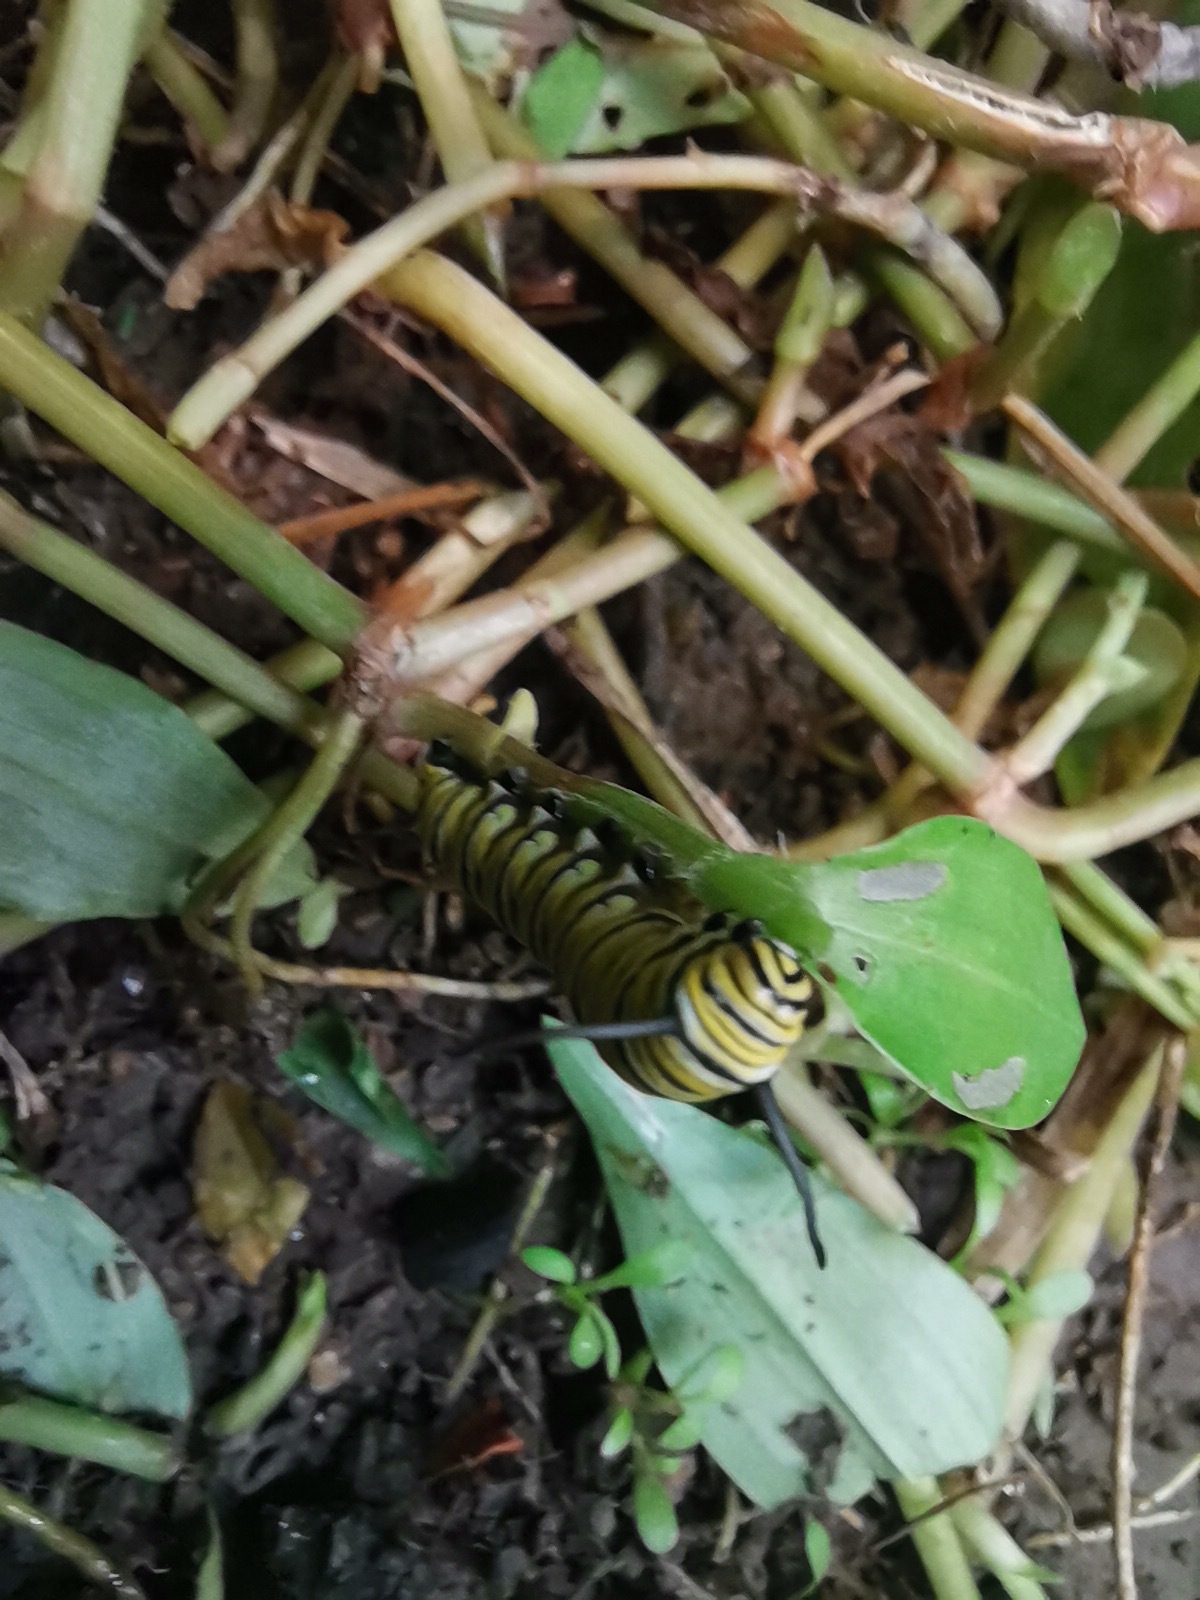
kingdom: Animalia
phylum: Arthropoda
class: Insecta
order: Lepidoptera
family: Nymphalidae
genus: Danaus
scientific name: Danaus plexippus
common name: Monarch
